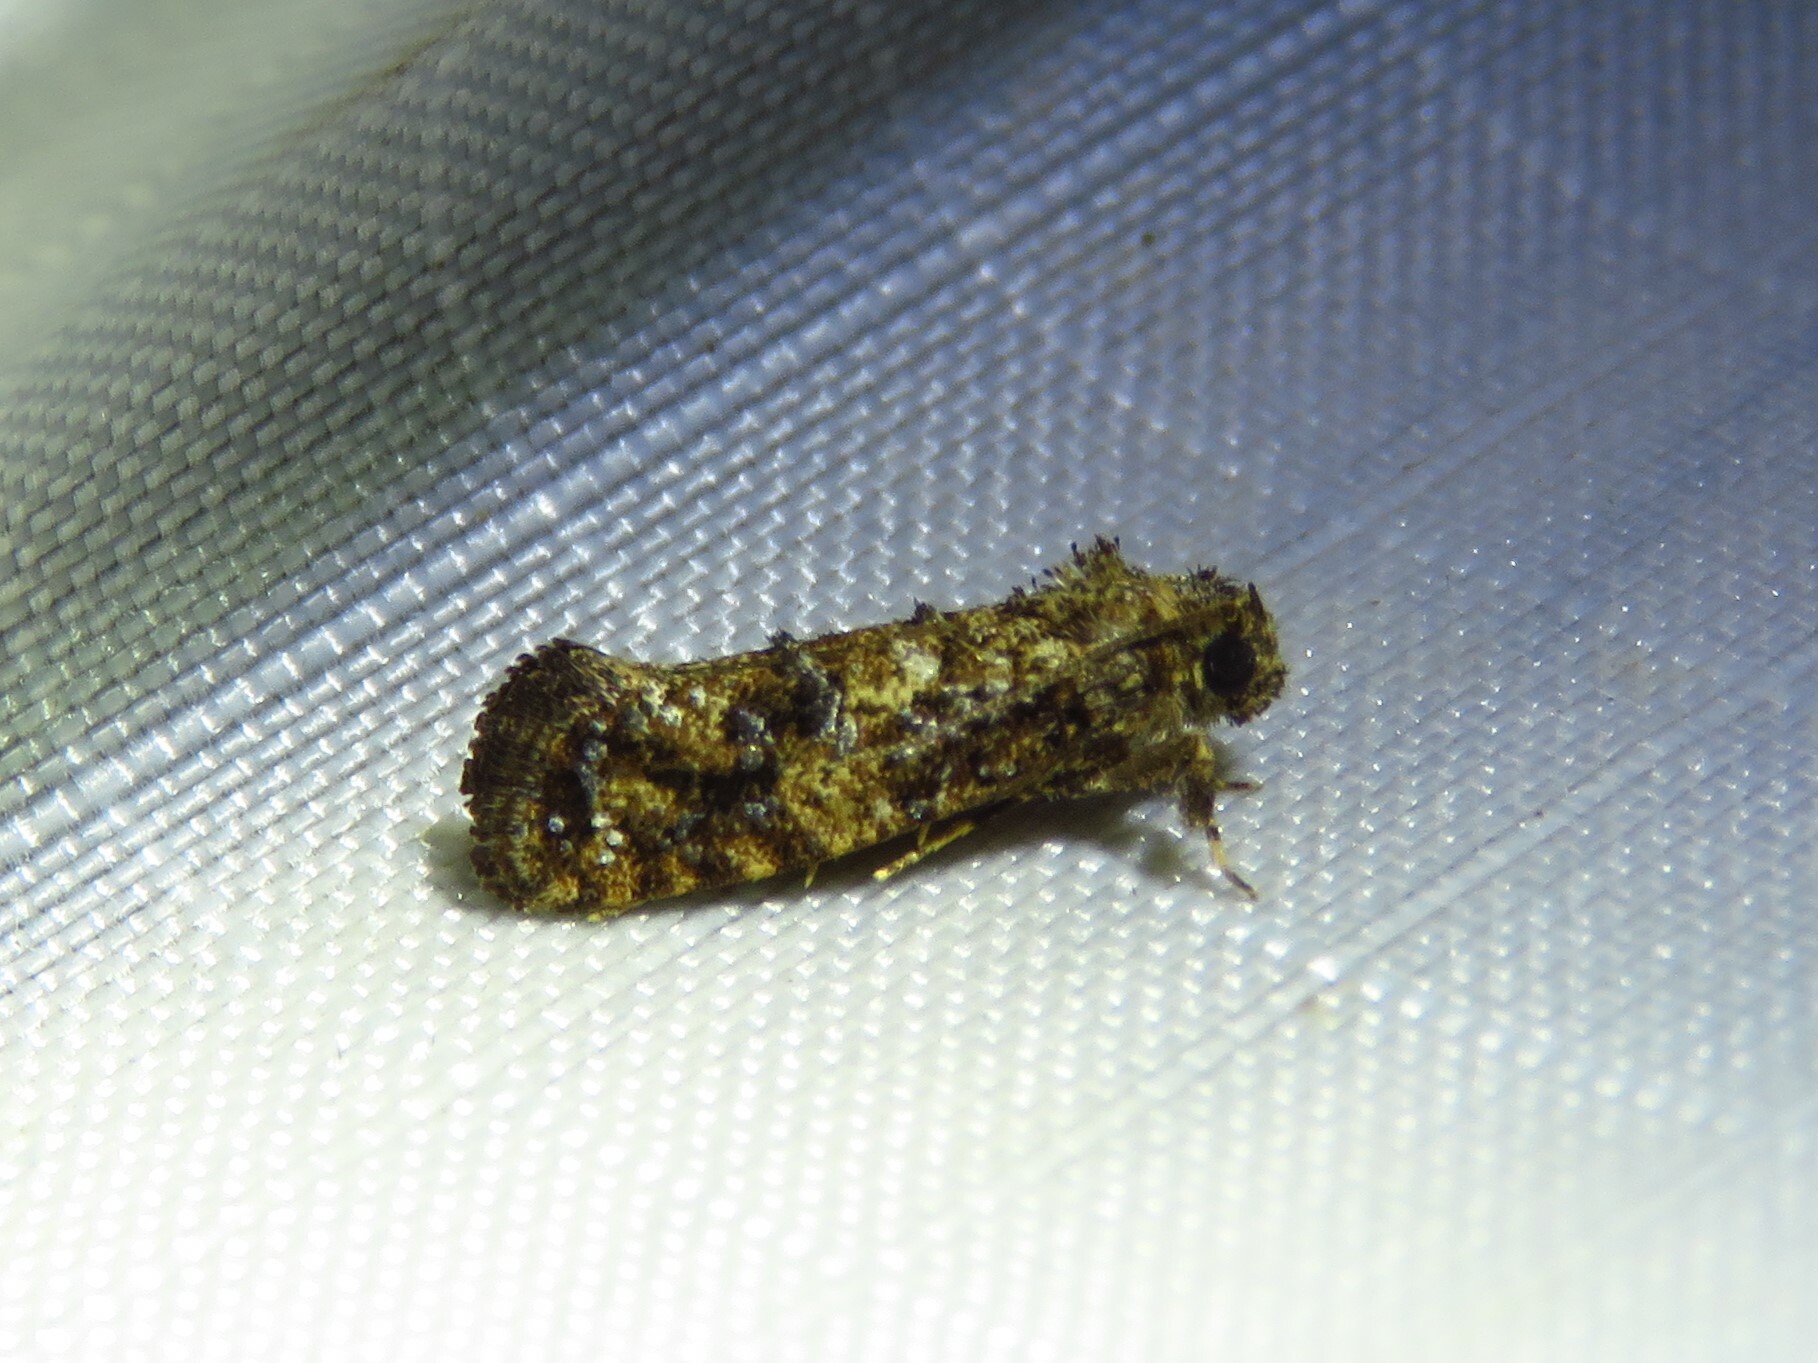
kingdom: Animalia
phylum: Arthropoda
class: Insecta
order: Lepidoptera
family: Tineidae
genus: Acrolophus
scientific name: Acrolophus cressoni
